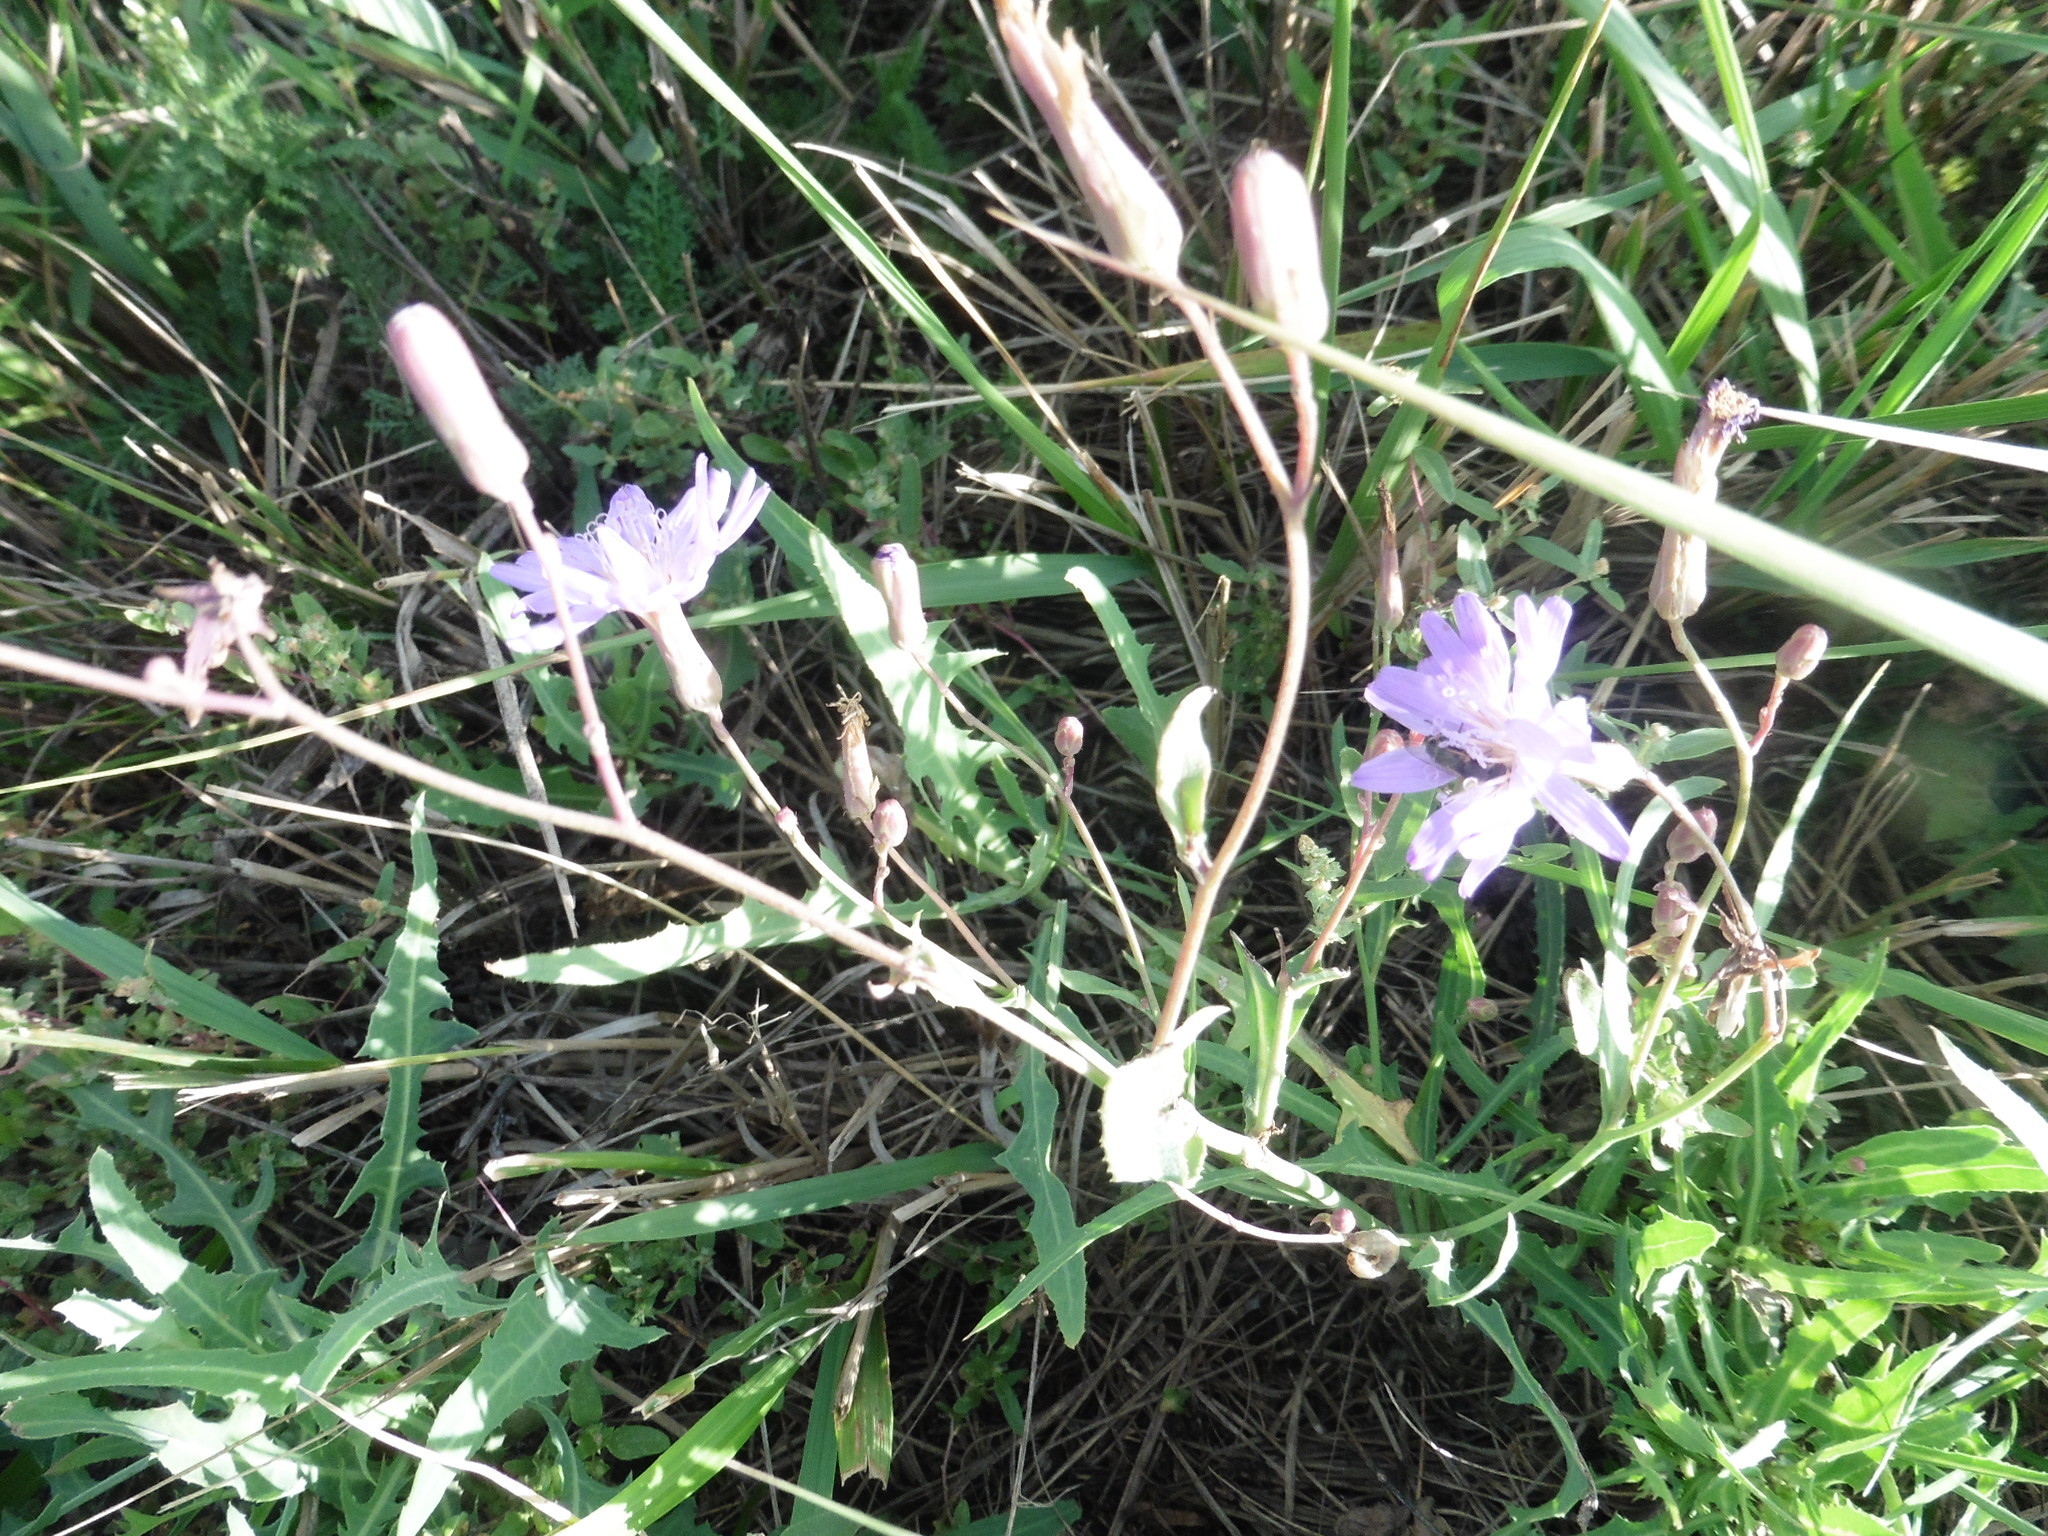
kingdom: Plantae
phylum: Tracheophyta
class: Magnoliopsida
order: Asterales
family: Asteraceae
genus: Lactuca
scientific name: Lactuca tatarica
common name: Blue lettuce
